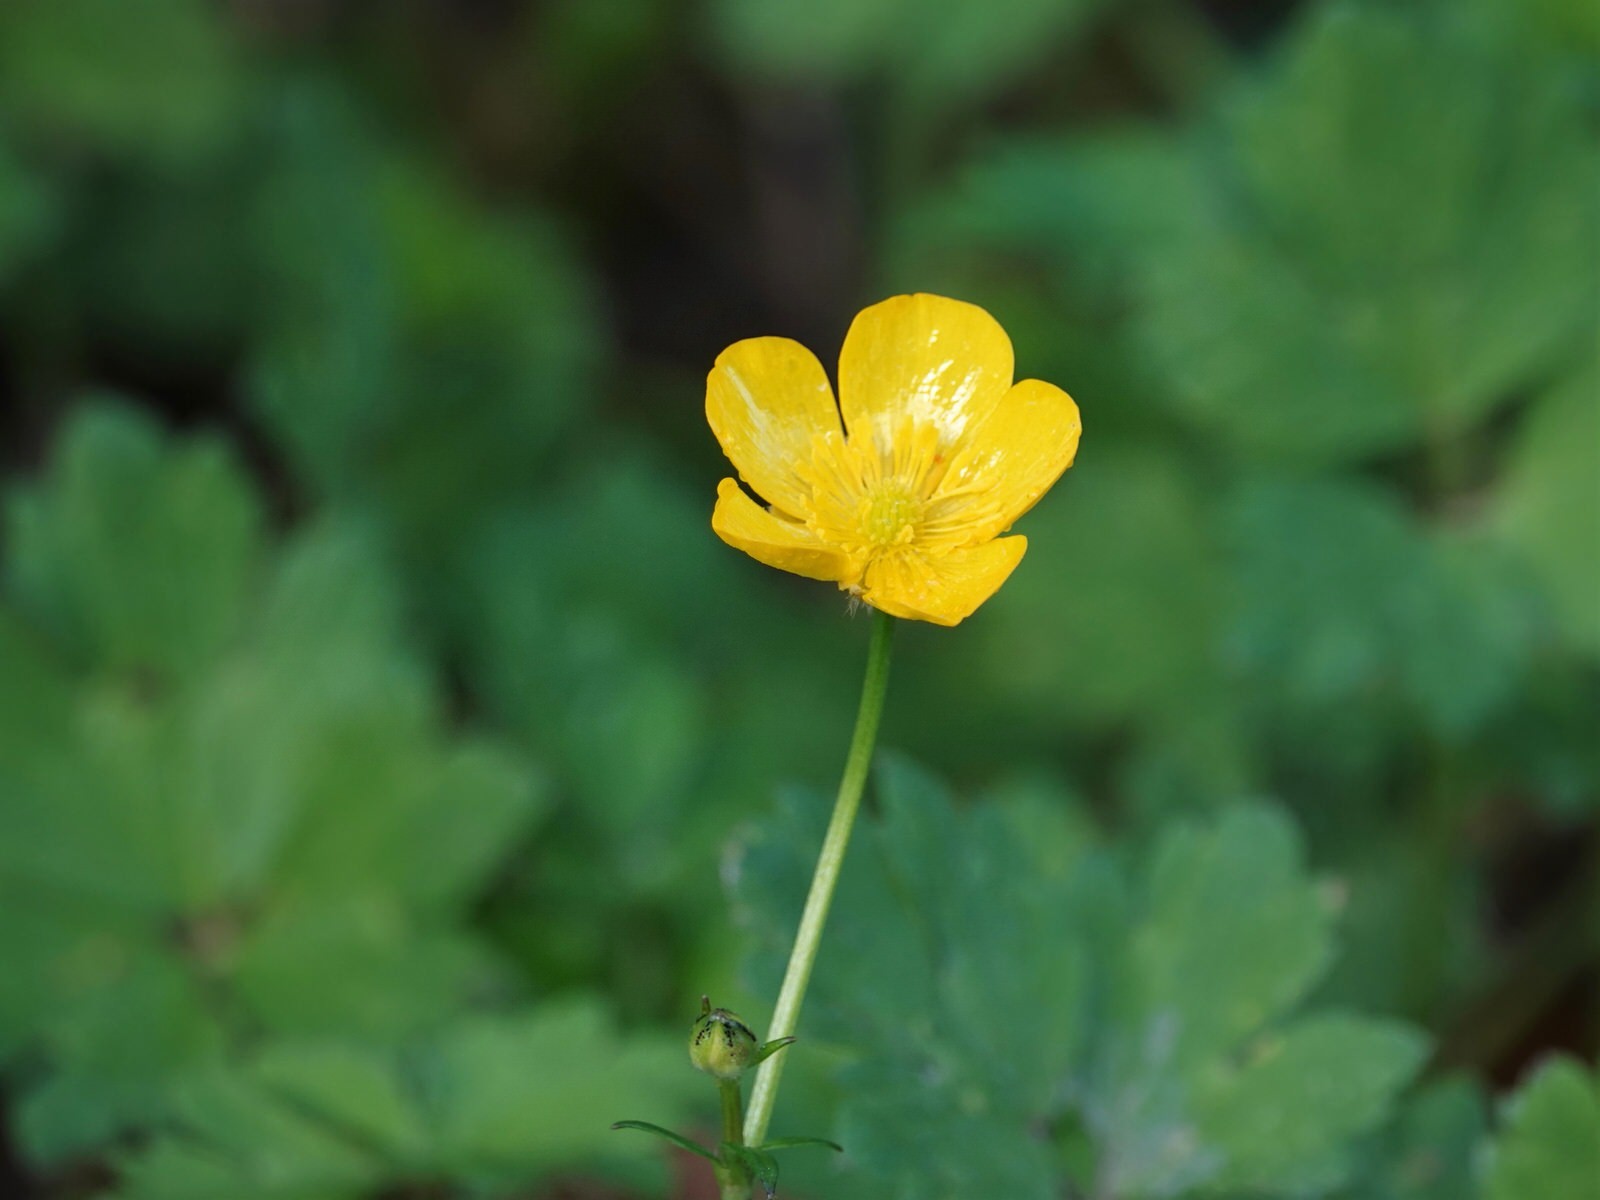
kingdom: Plantae
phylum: Tracheophyta
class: Magnoliopsida
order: Ranunculales
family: Ranunculaceae
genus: Ranunculus
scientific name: Ranunculus repens
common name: Creeping buttercup
